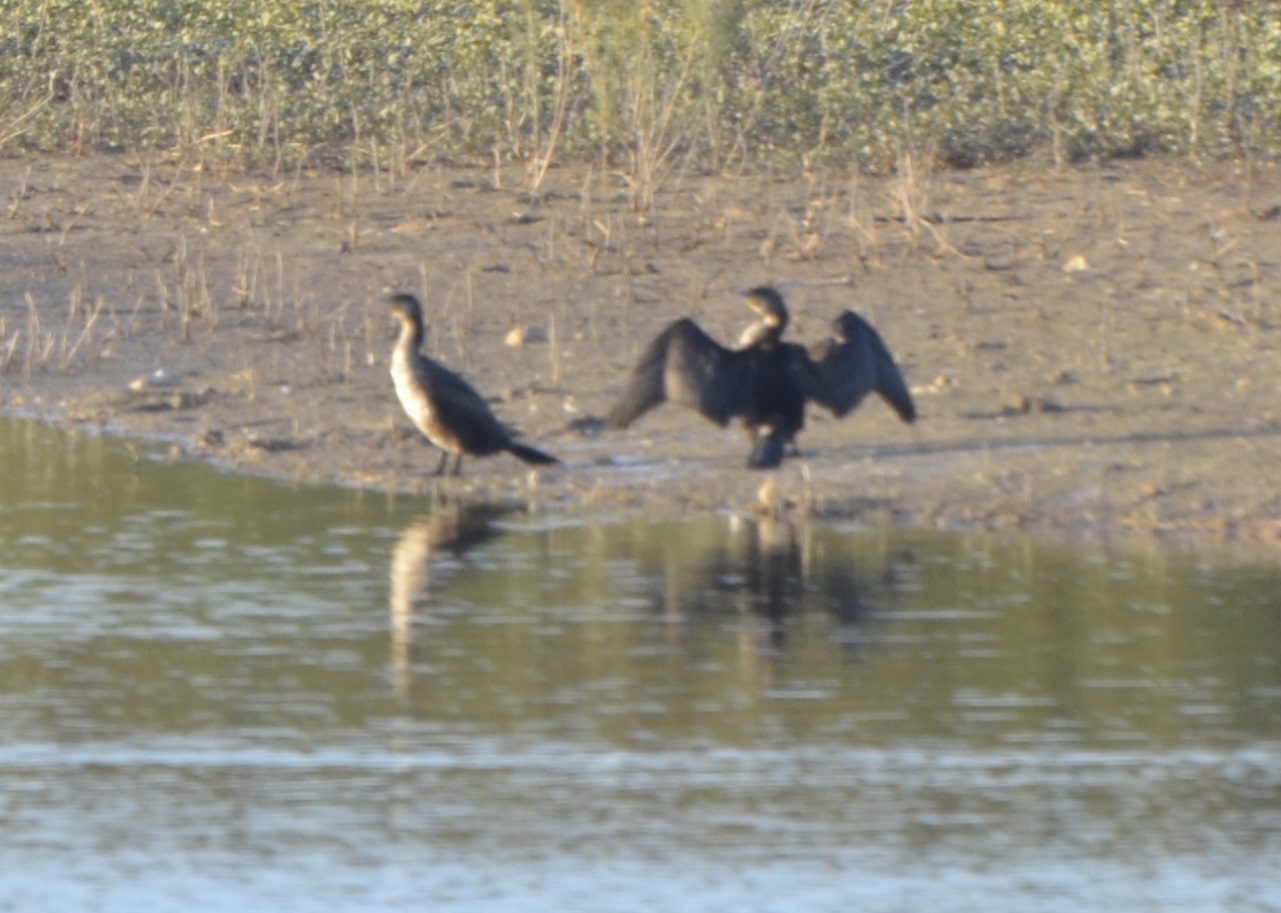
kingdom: Animalia
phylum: Chordata
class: Aves
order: Suliformes
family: Phalacrocoracidae
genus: Phalacrocorax
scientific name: Phalacrocorax carbo
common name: Great cormorant
